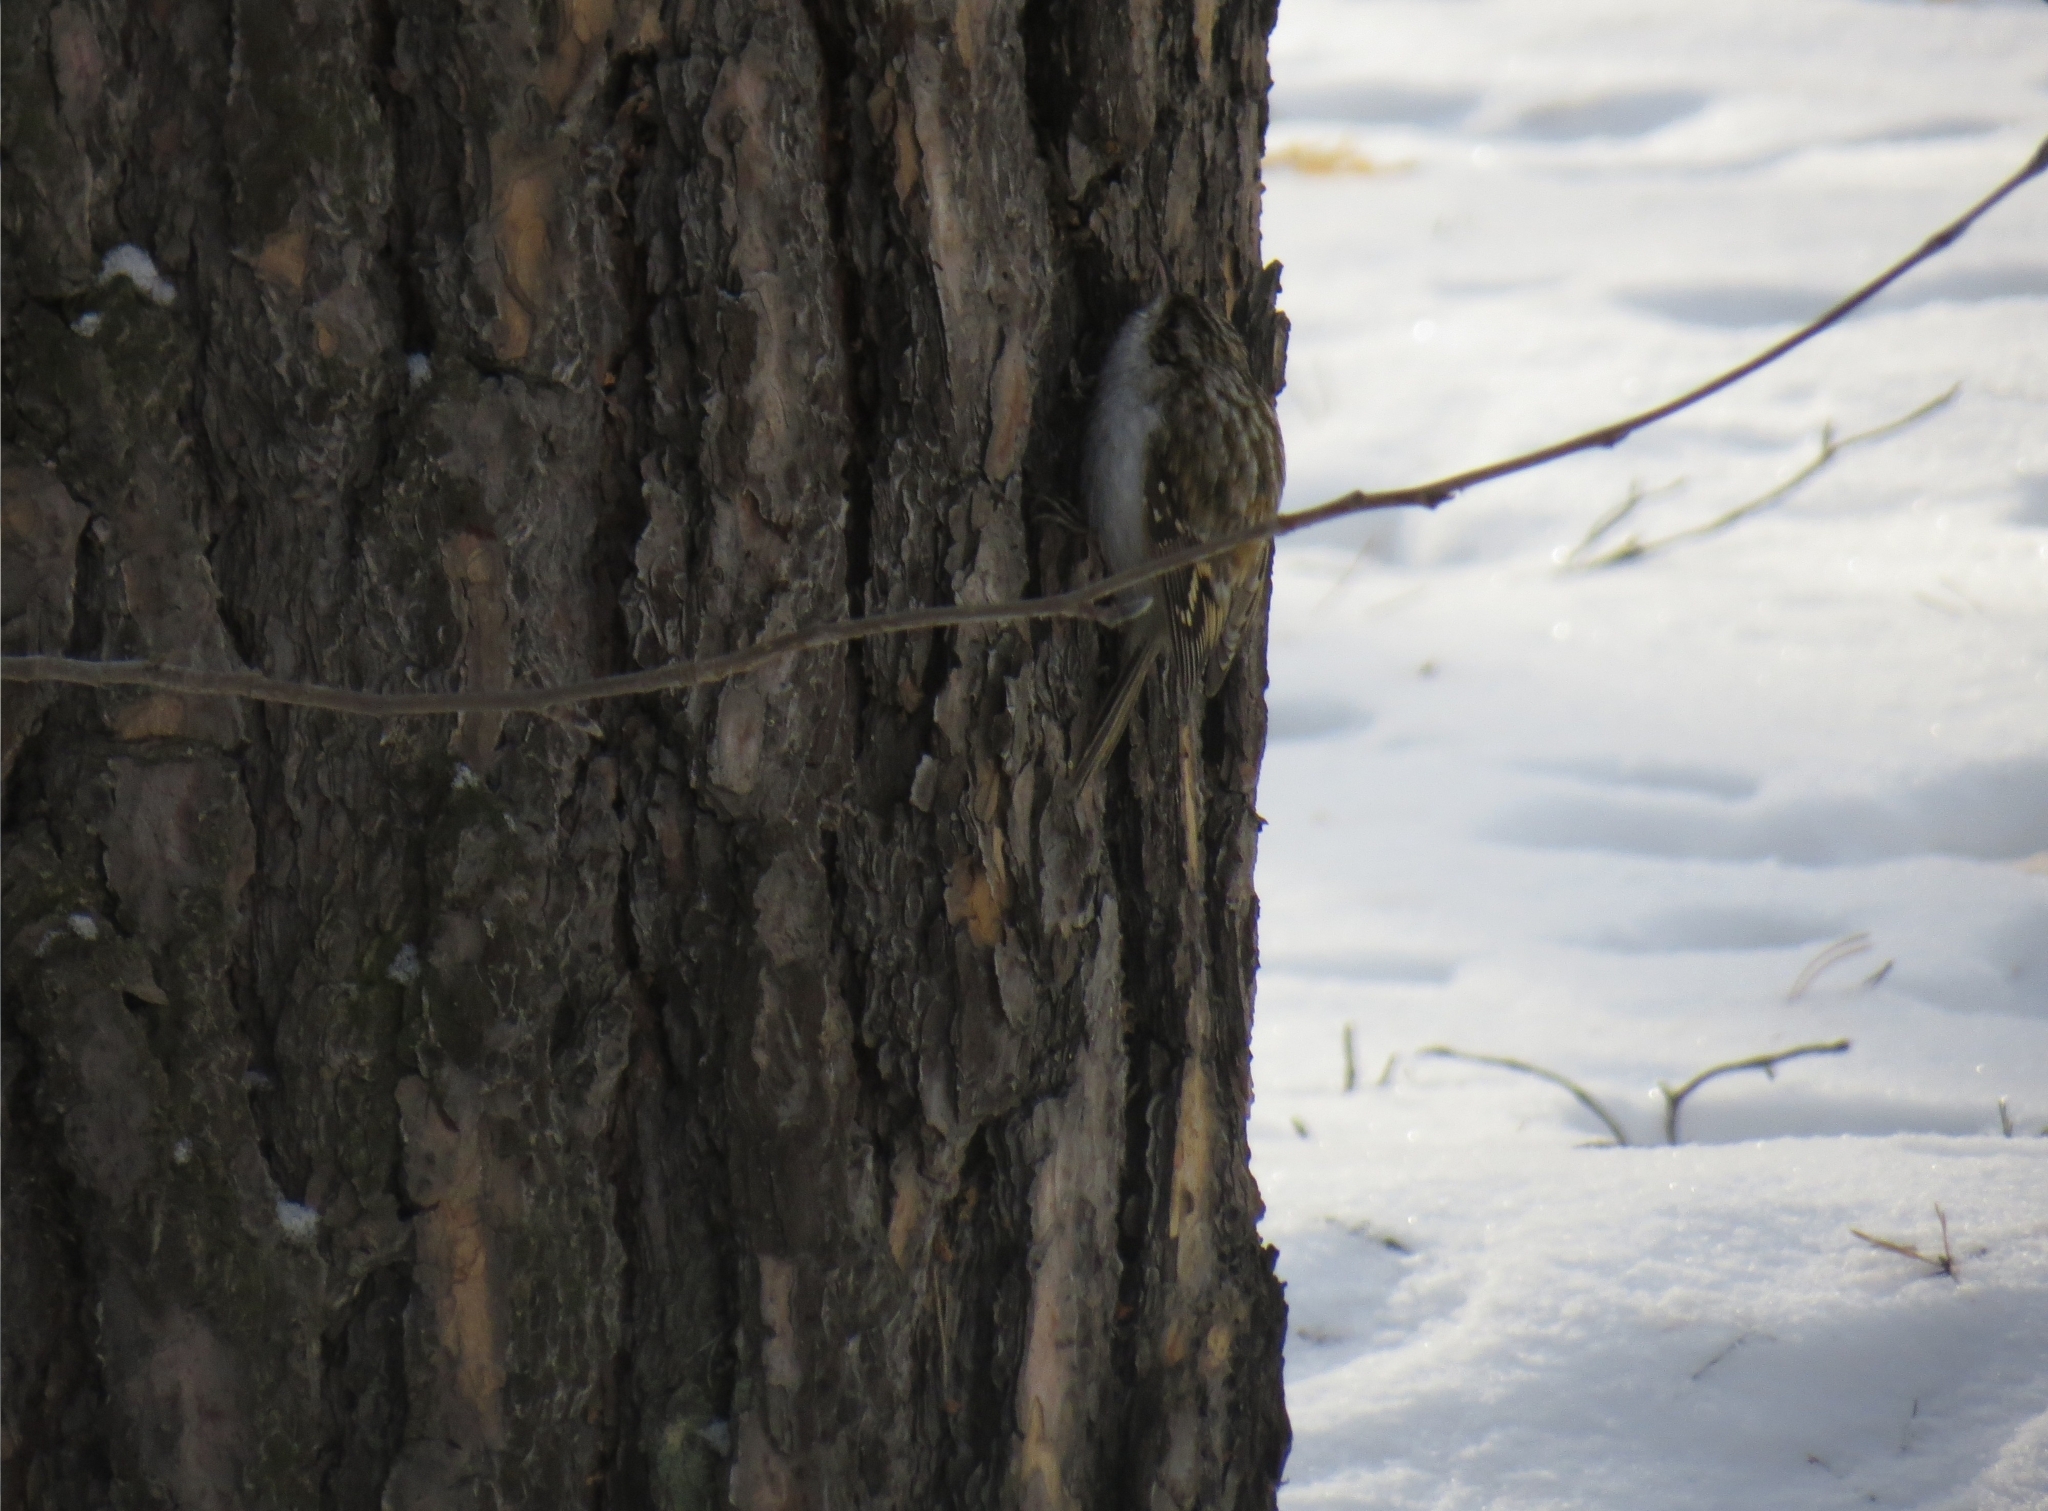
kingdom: Animalia
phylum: Chordata
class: Aves
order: Passeriformes
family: Certhiidae
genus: Certhia
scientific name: Certhia familiaris
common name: Eurasian treecreeper
